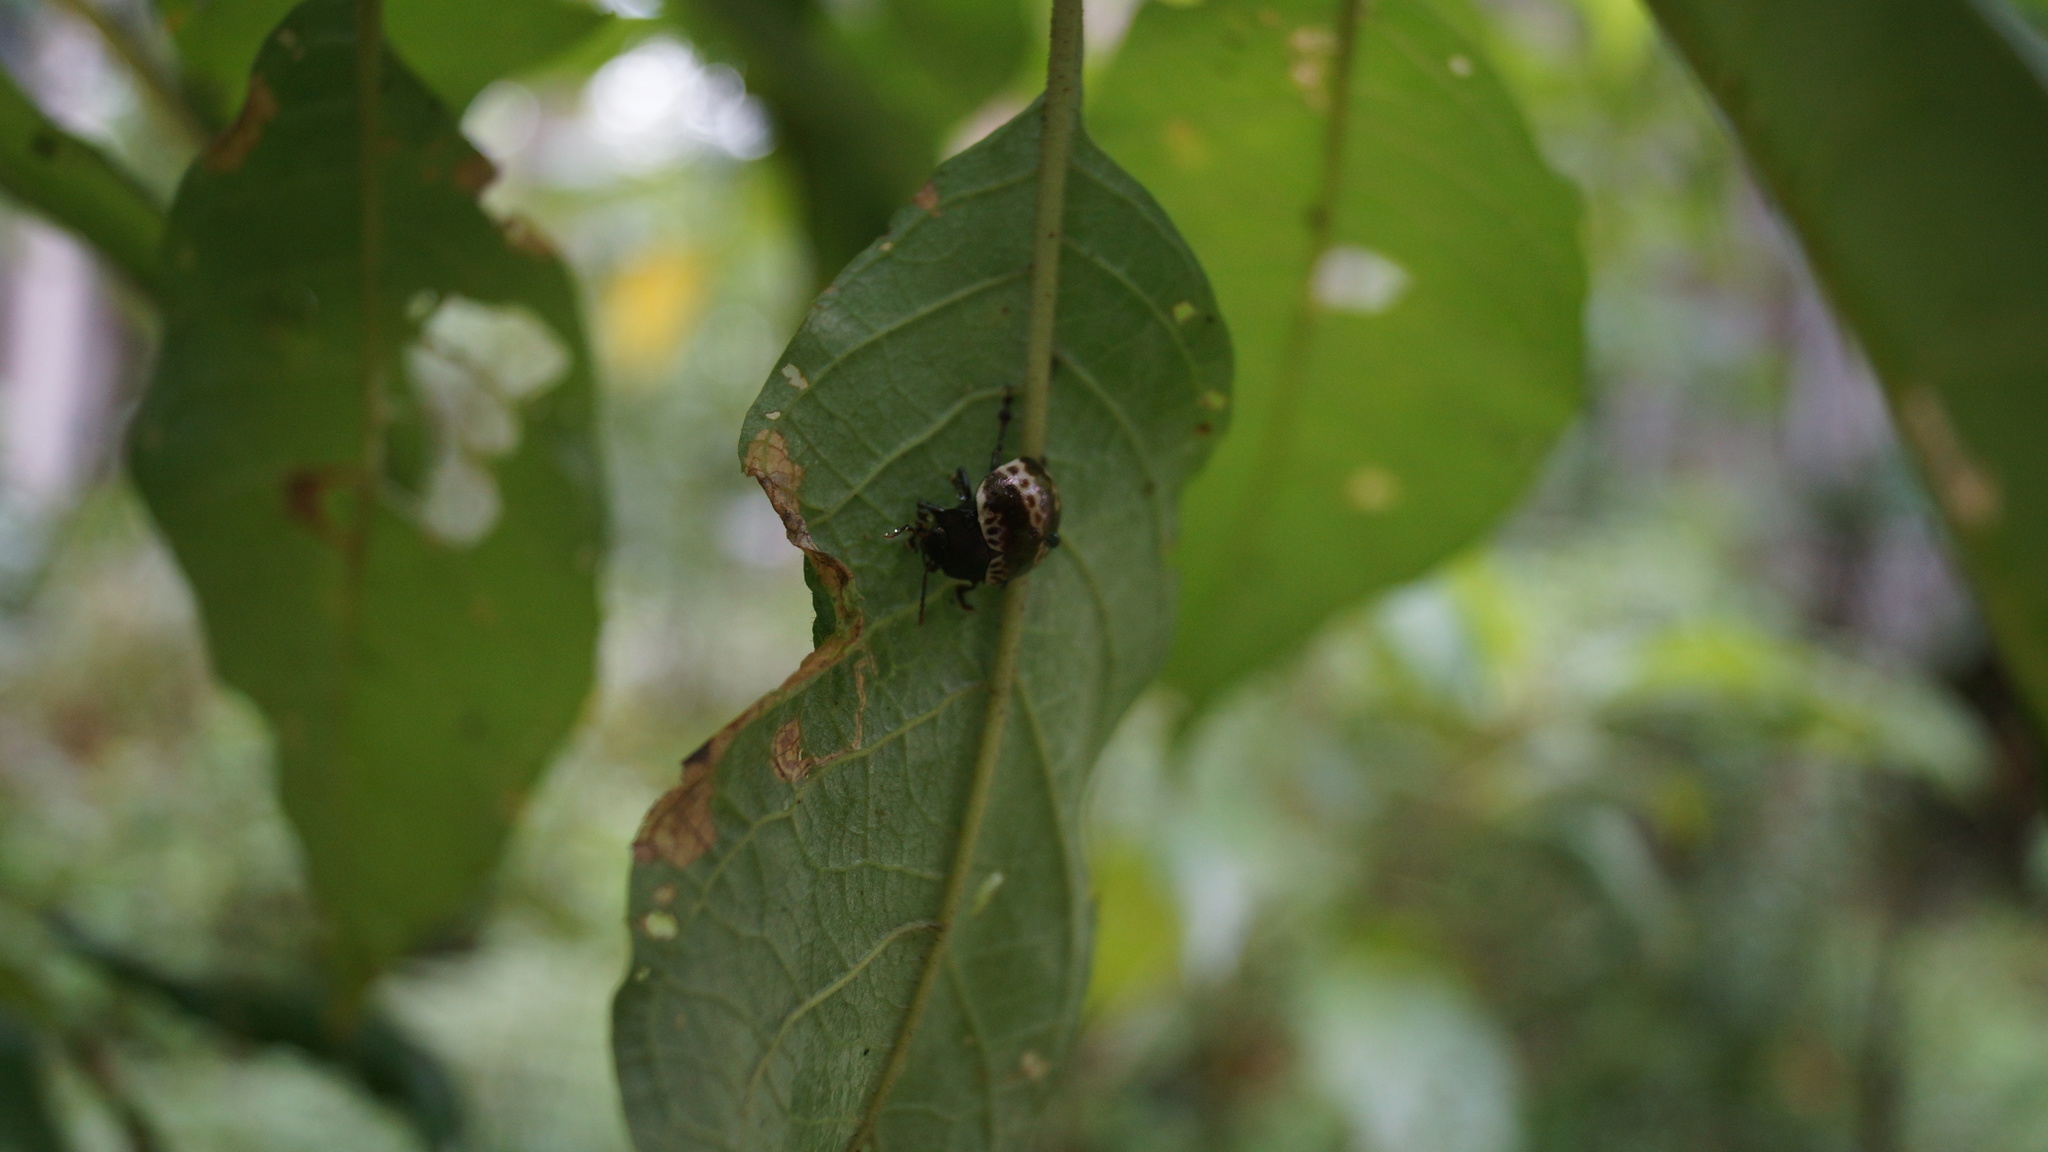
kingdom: Animalia
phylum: Arthropoda
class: Insecta
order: Coleoptera
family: Chrysomelidae
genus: Platyphora
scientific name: Platyphora
